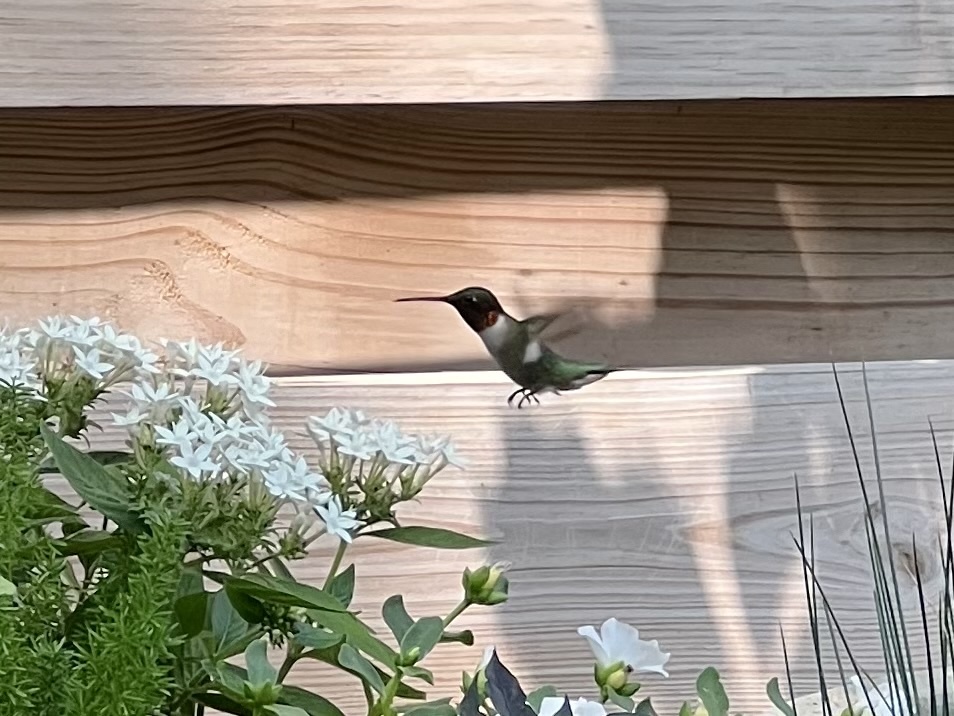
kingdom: Animalia
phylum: Chordata
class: Aves
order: Apodiformes
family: Trochilidae
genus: Archilochus
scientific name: Archilochus colubris
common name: Ruby-throated hummingbird
